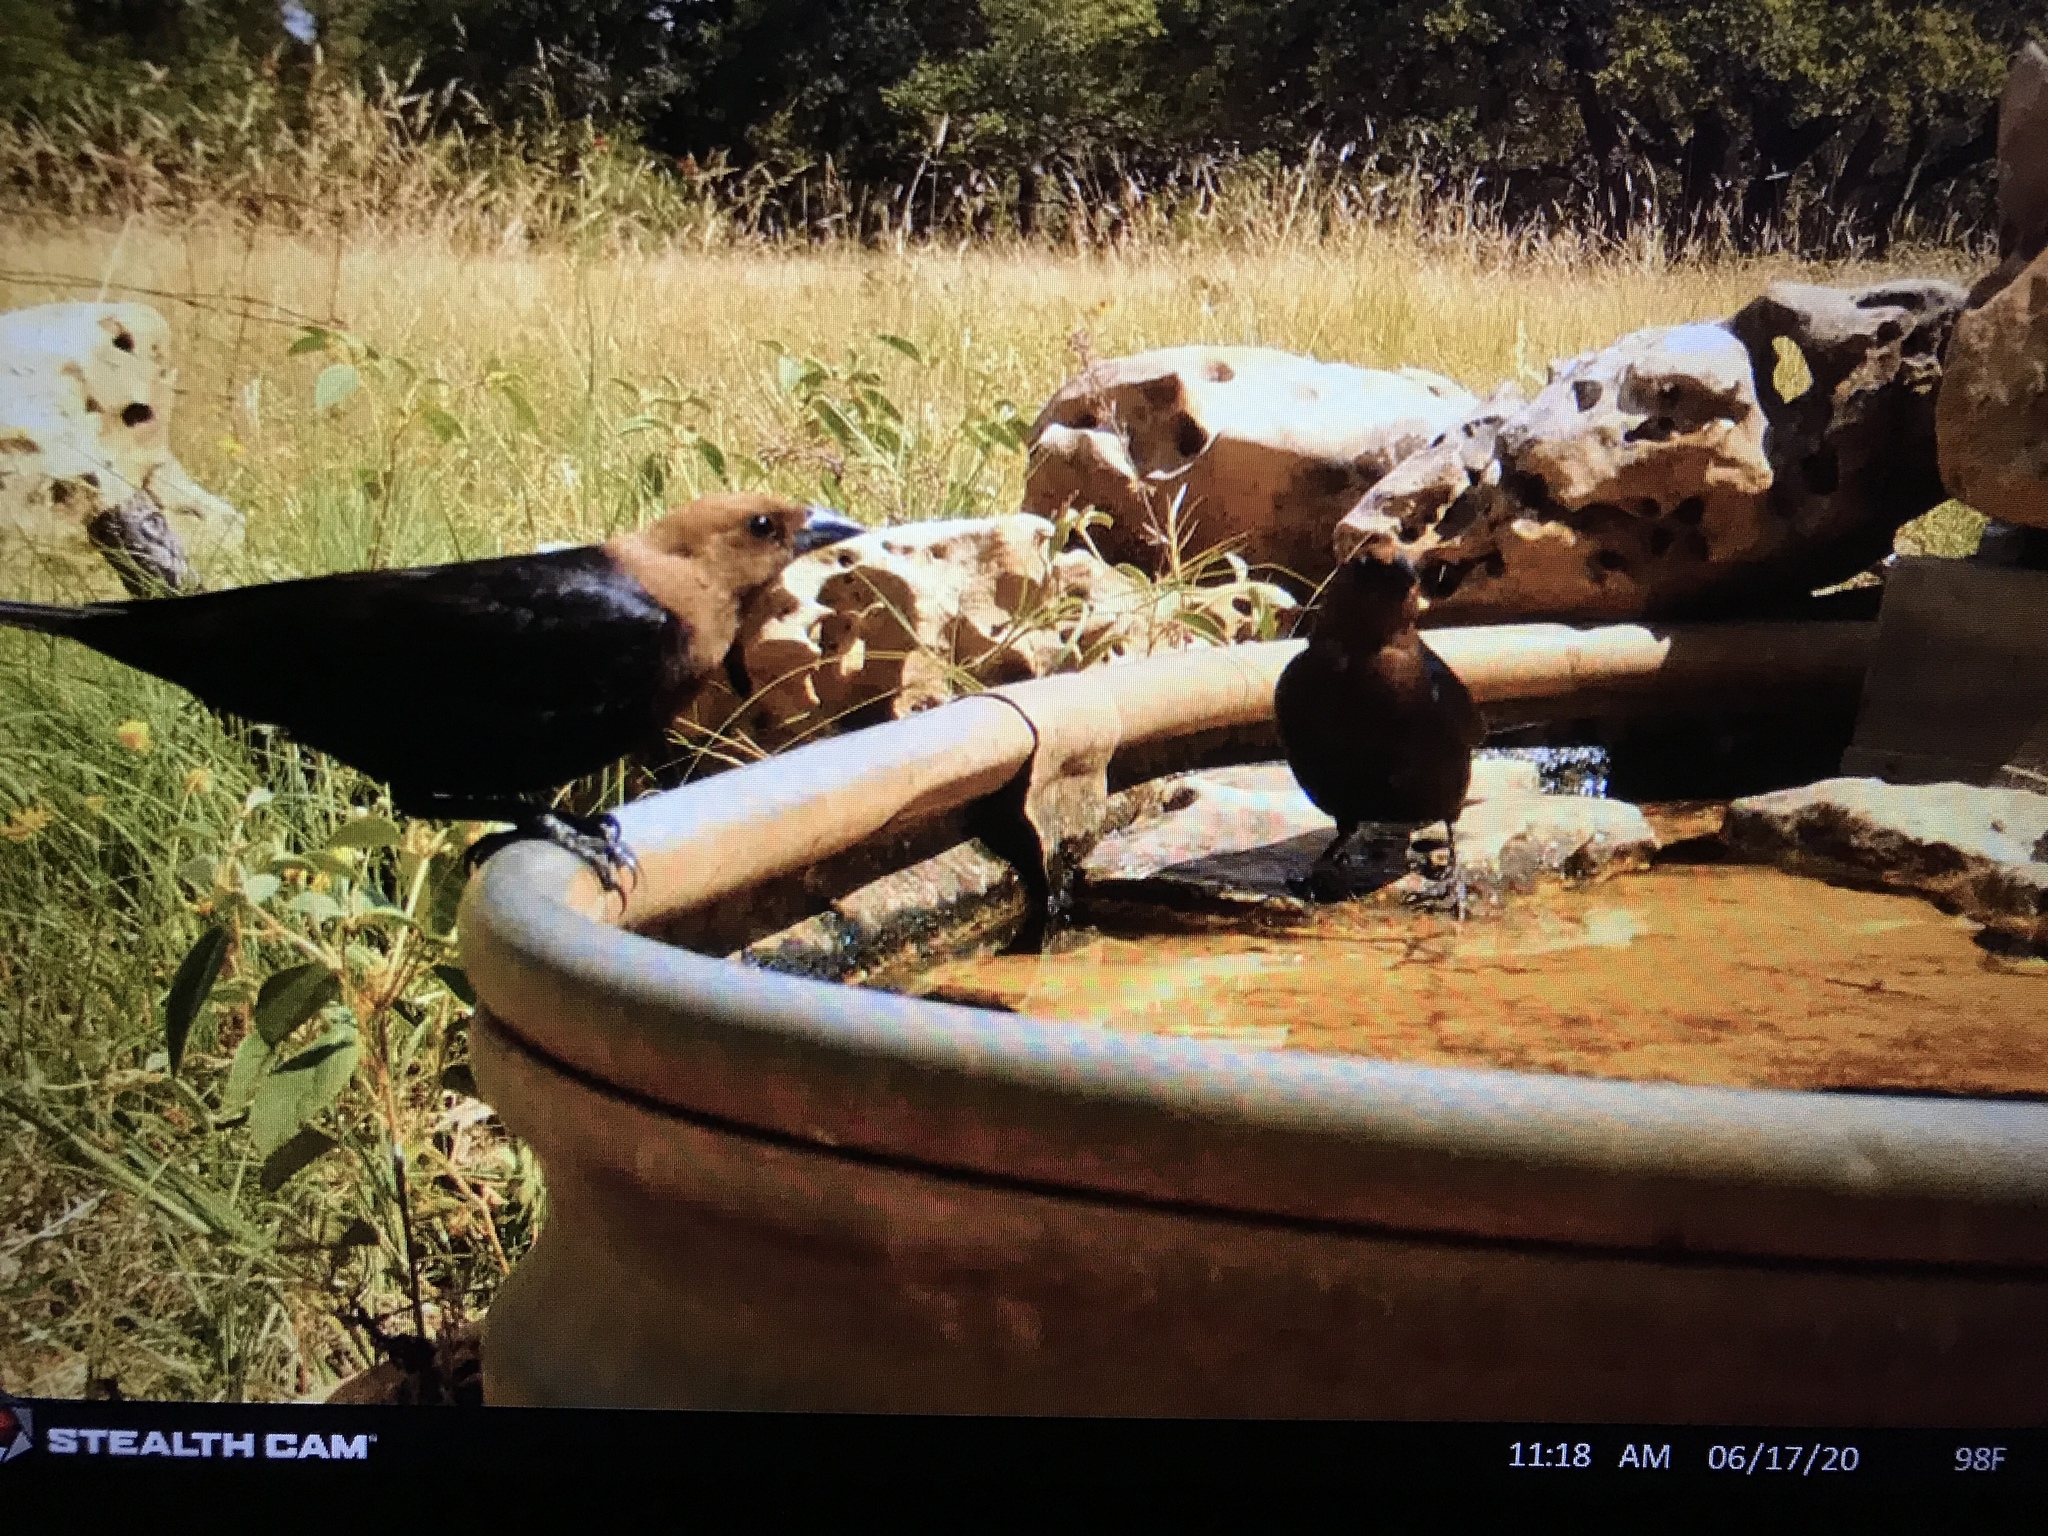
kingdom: Animalia
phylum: Chordata
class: Aves
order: Passeriformes
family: Icteridae
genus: Molothrus
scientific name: Molothrus ater
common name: Brown-headed cowbird
